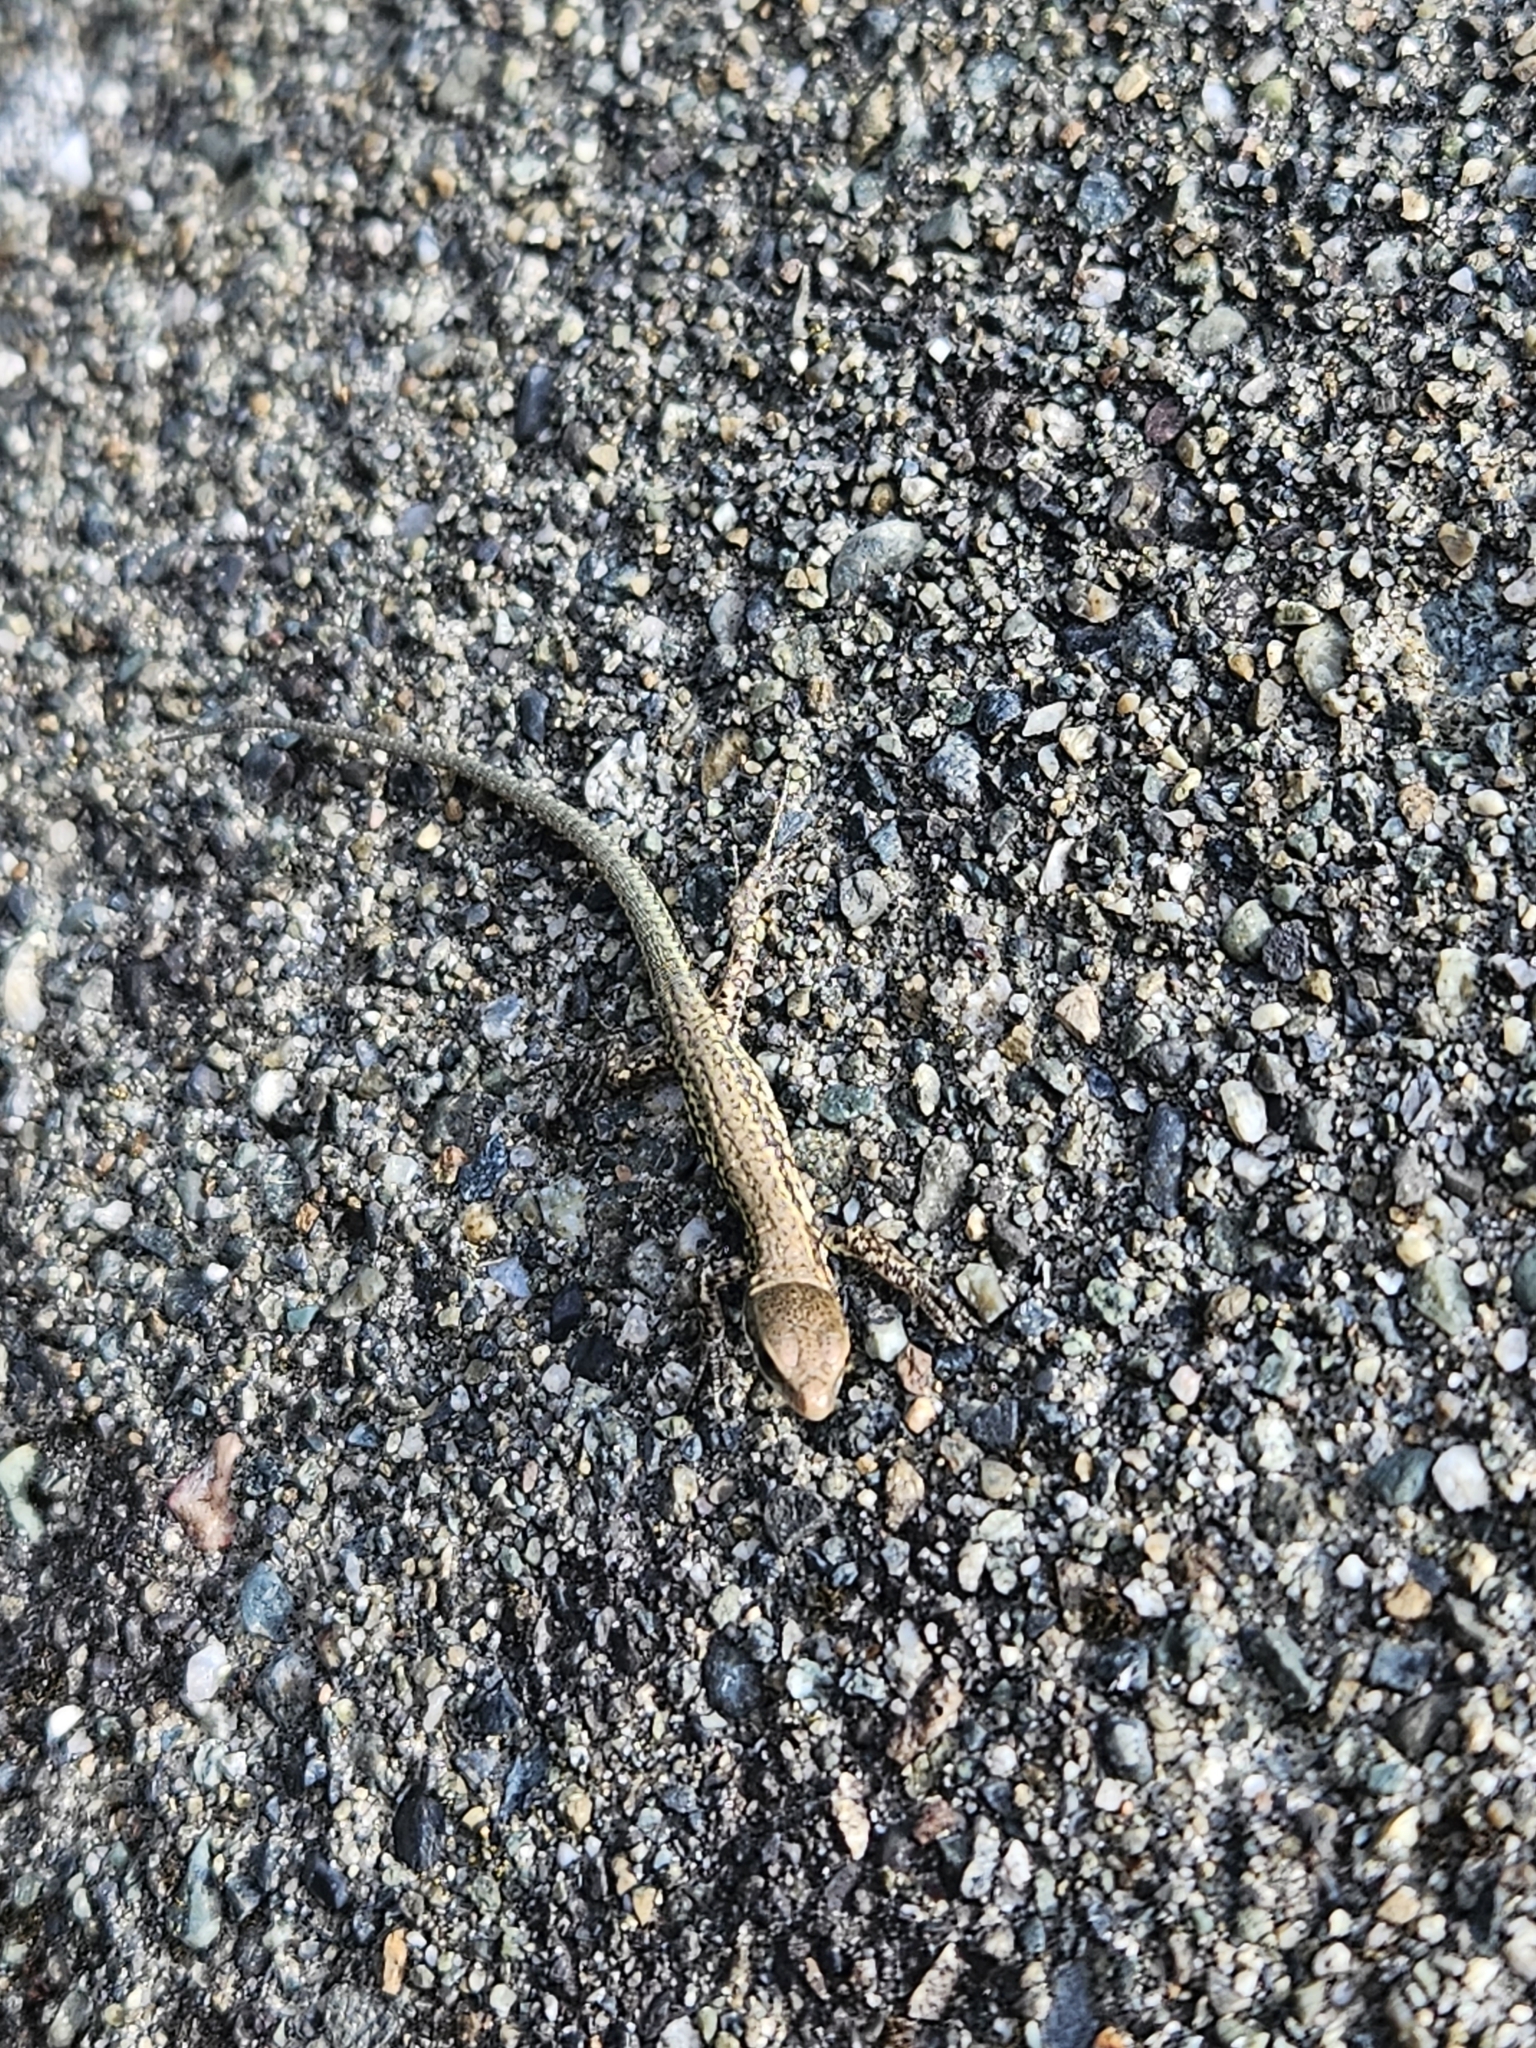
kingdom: Animalia
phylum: Chordata
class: Squamata
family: Lacertidae
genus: Podarcis
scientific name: Podarcis muralis
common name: Common wall lizard
